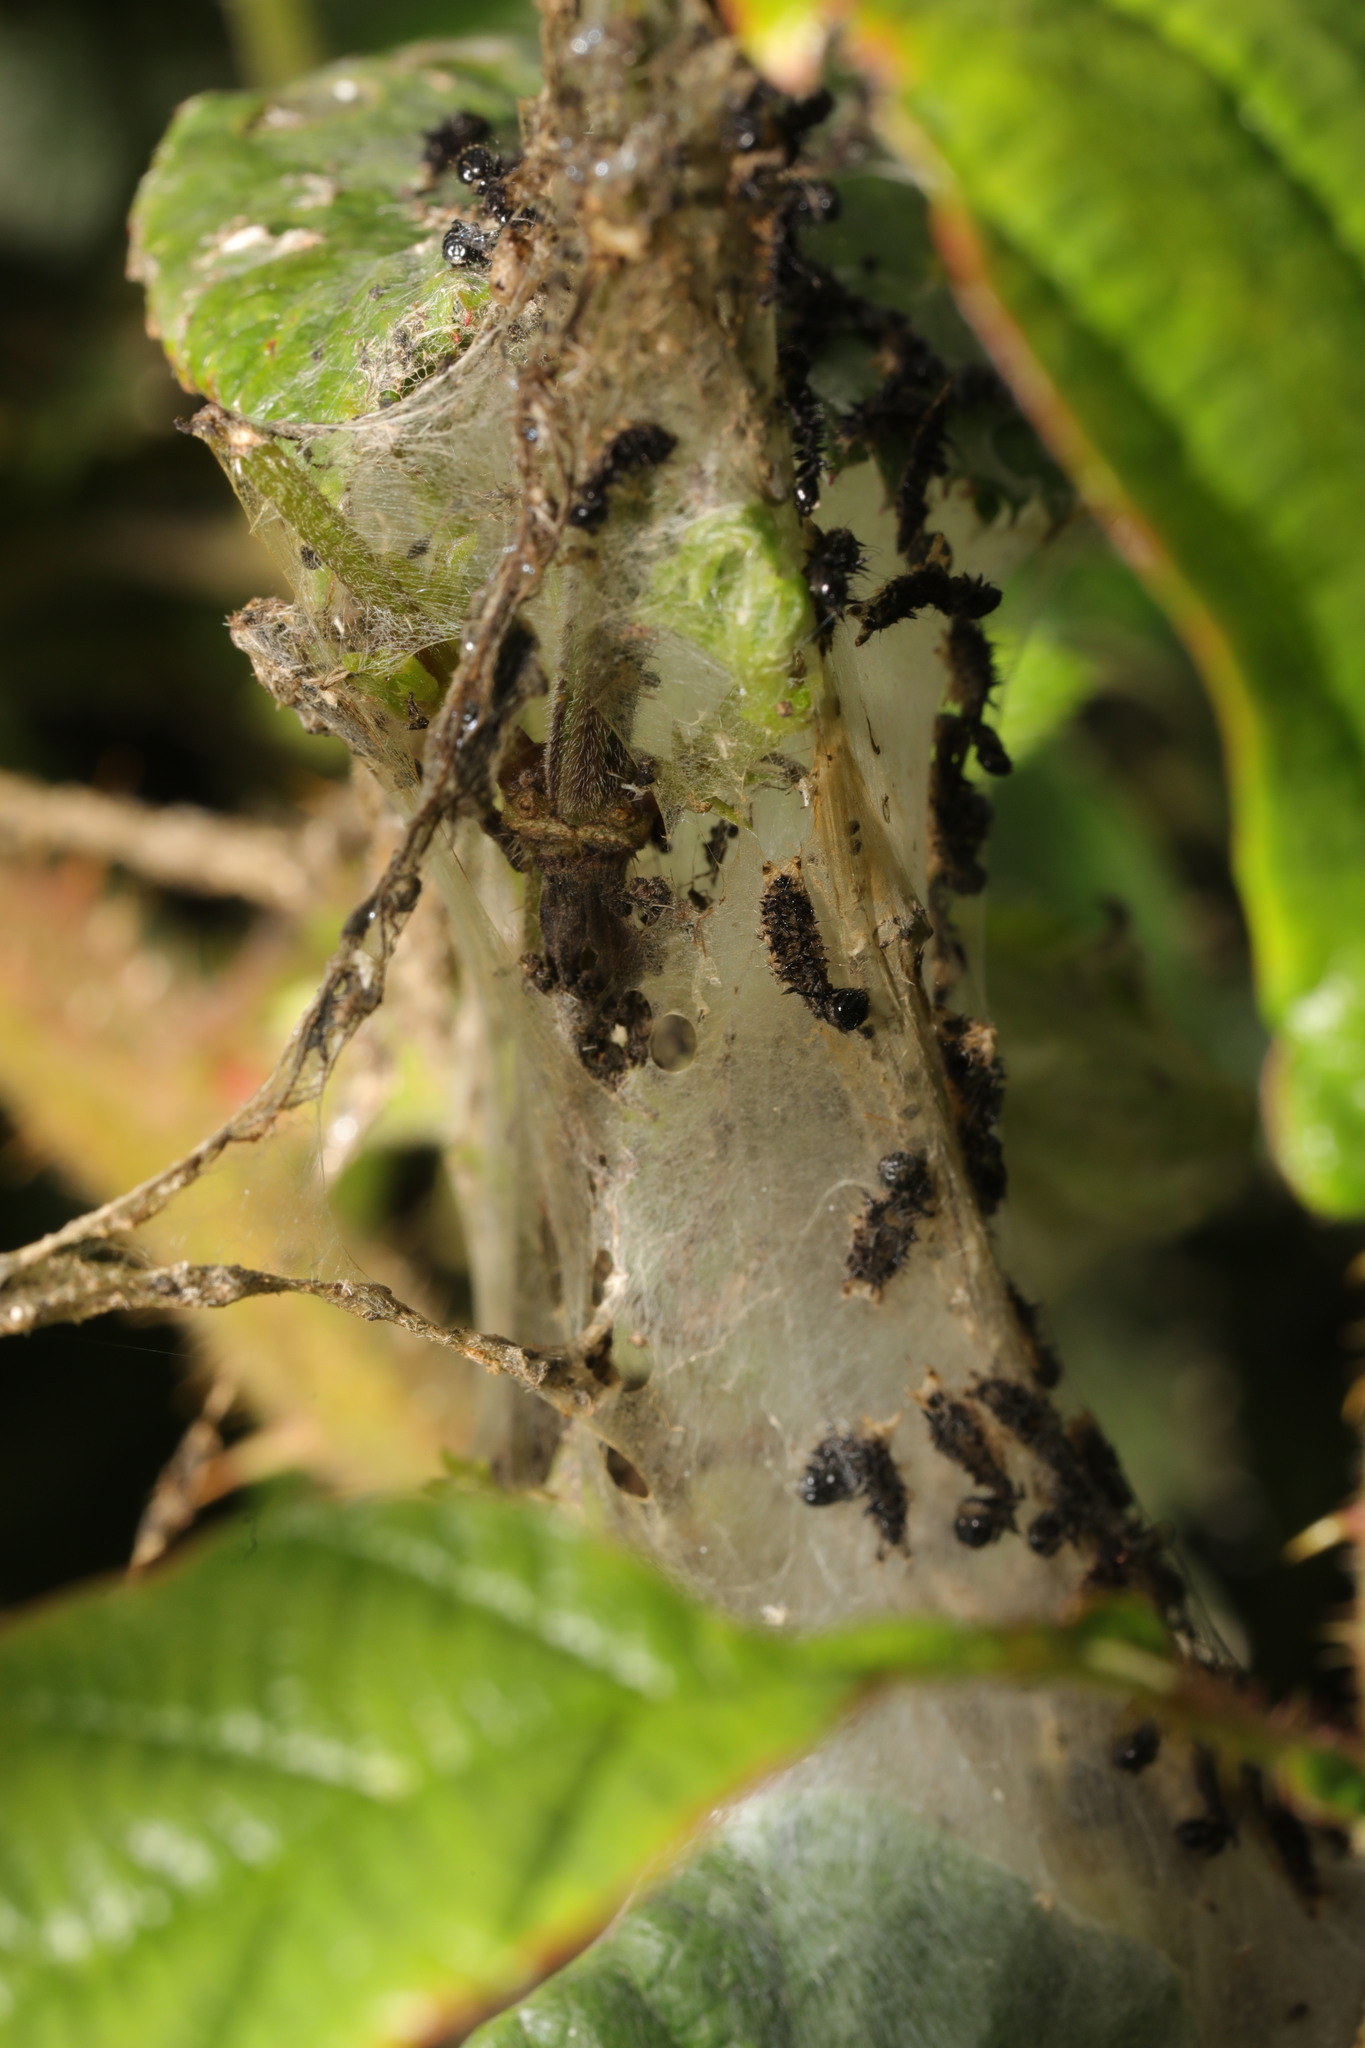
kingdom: Animalia
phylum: Arthropoda
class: Insecta
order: Lepidoptera
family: Nymphalidae
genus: Aglais
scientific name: Aglais io
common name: Peacock
